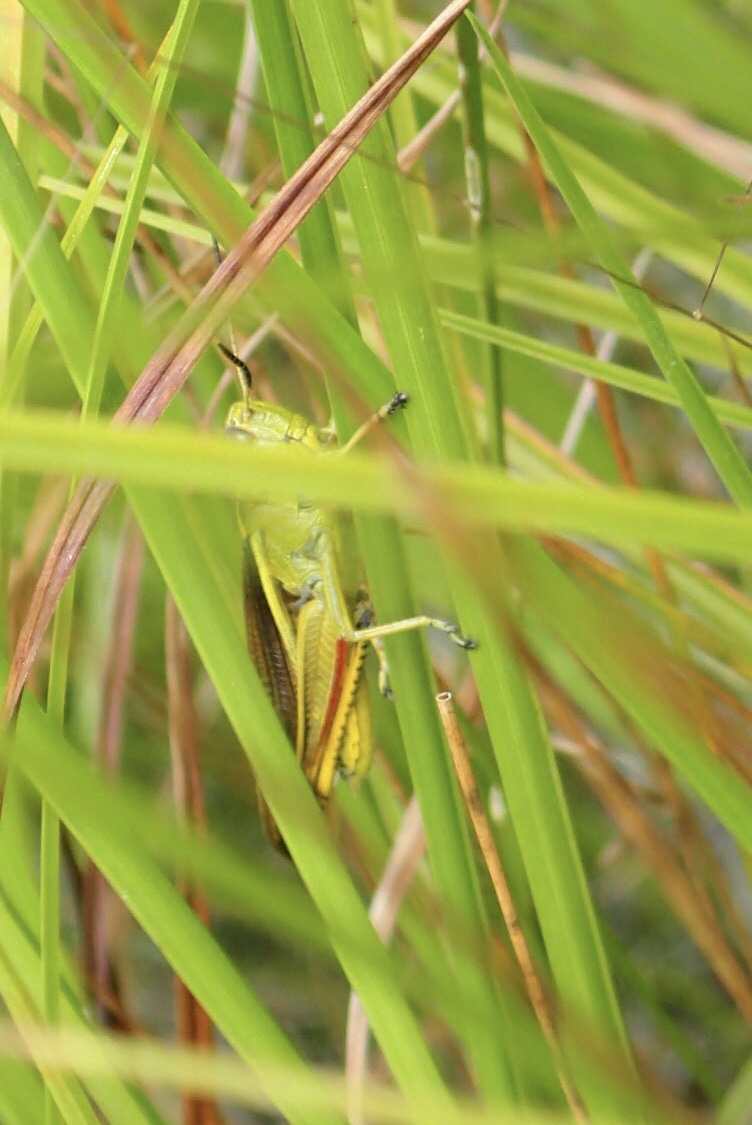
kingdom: Animalia
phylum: Arthropoda
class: Insecta
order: Orthoptera
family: Acrididae
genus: Stethophyma
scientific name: Stethophyma lineatum
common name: Striped sedge locust
